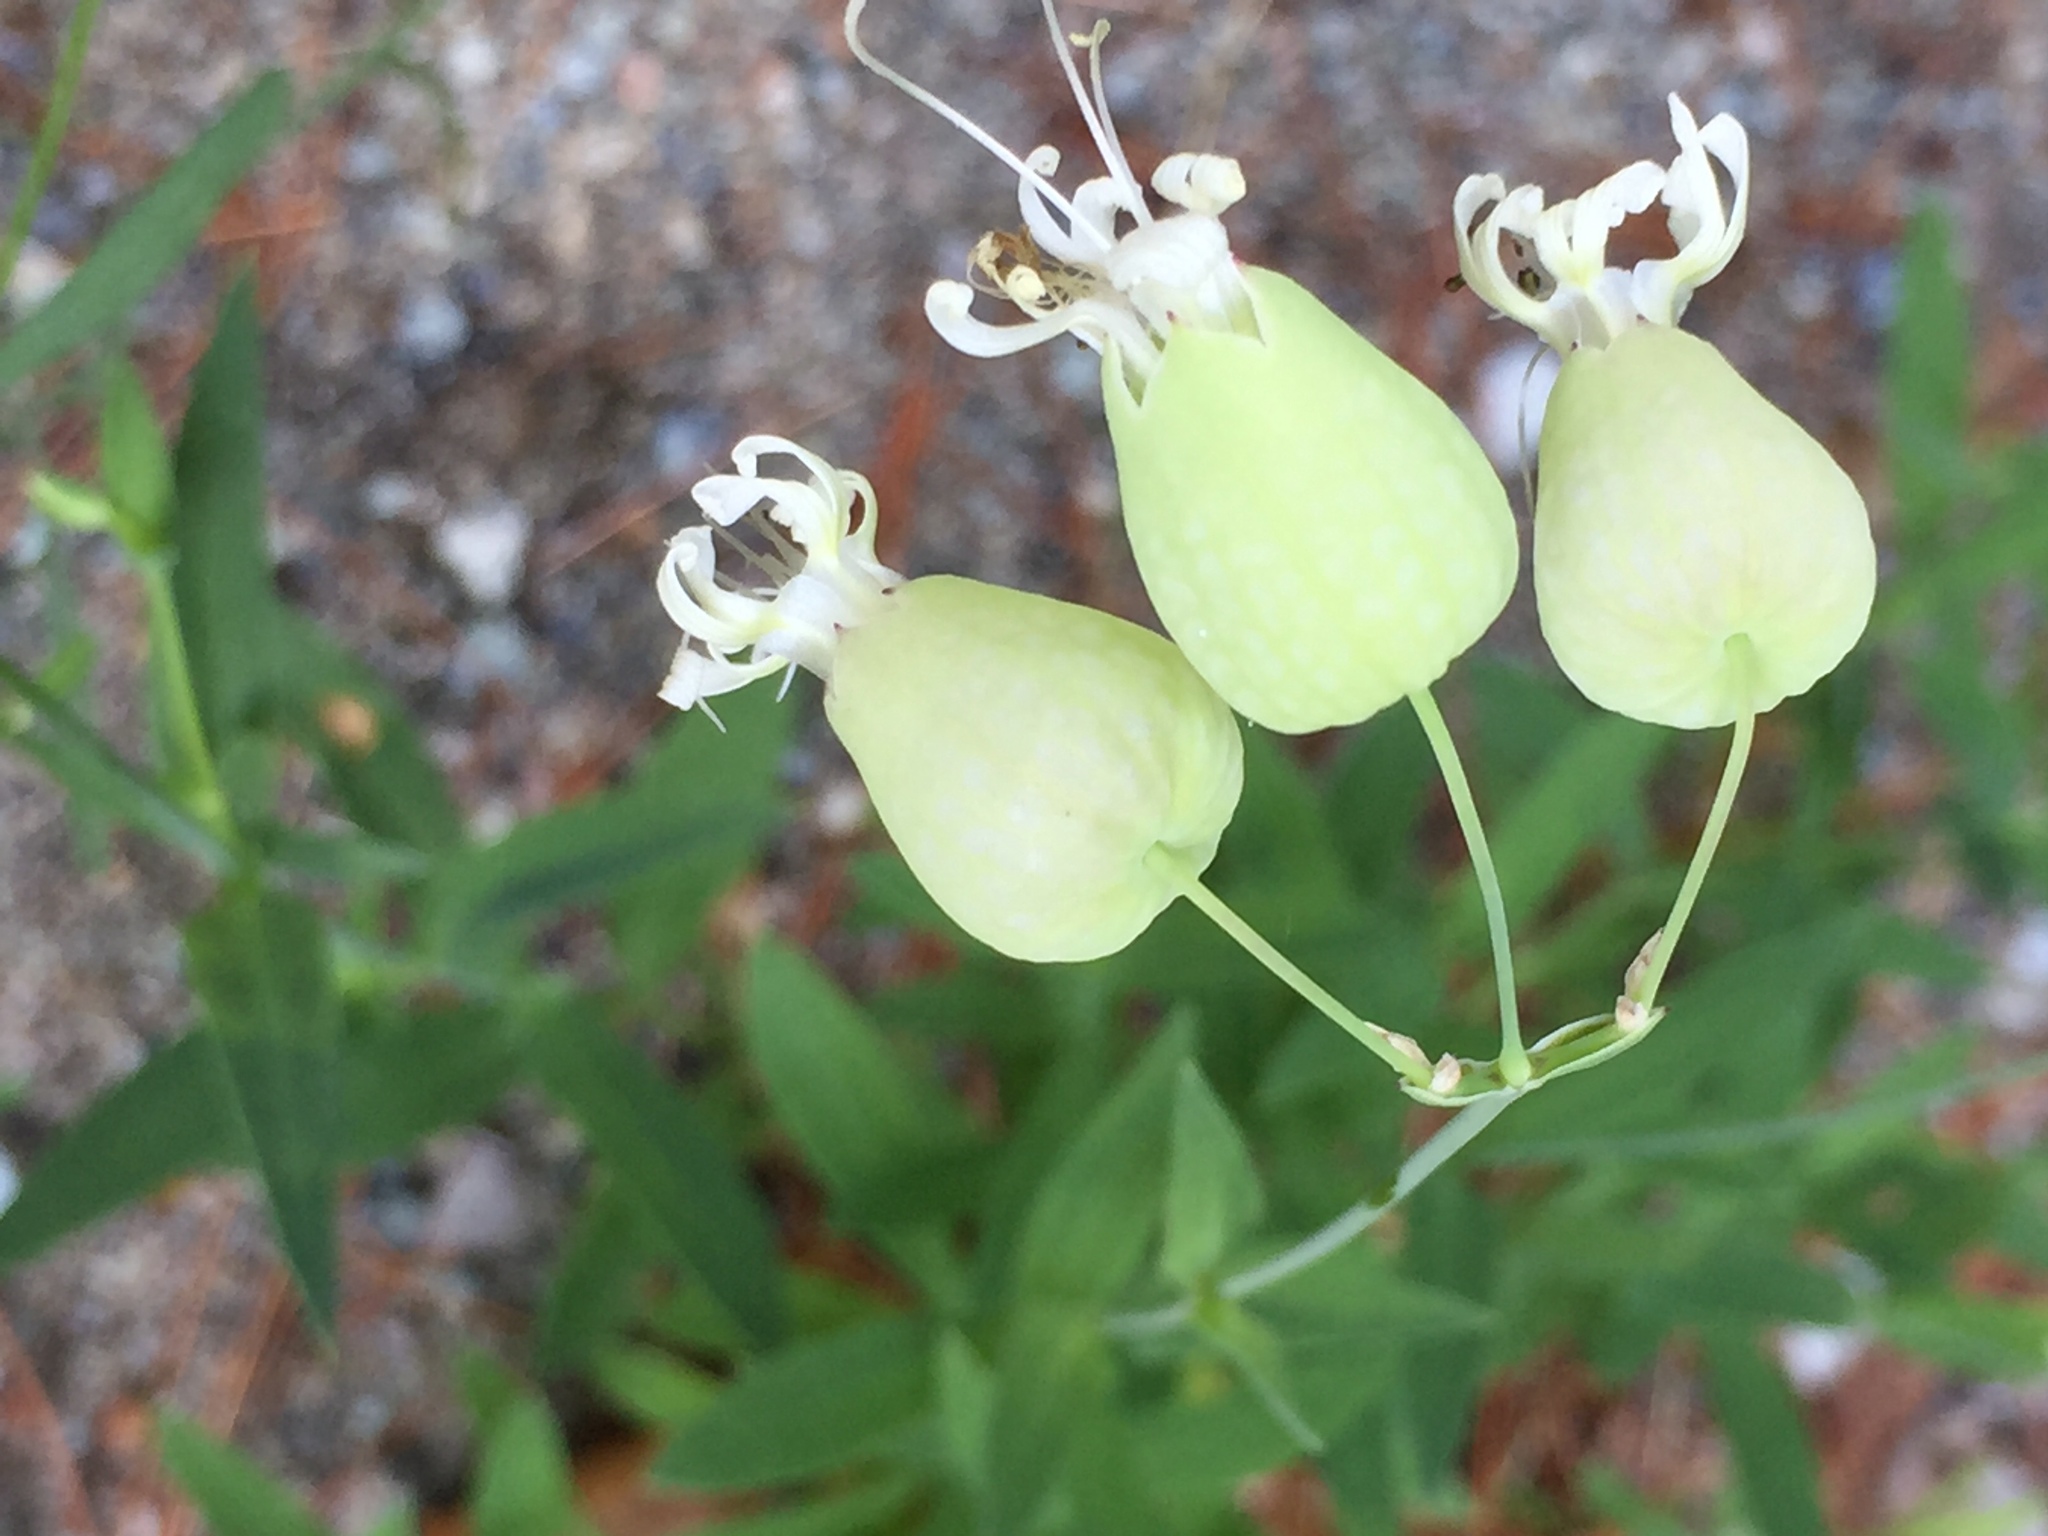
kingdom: Plantae
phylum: Tracheophyta
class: Magnoliopsida
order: Caryophyllales
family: Caryophyllaceae
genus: Silene
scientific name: Silene vulgaris
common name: Bladder campion
